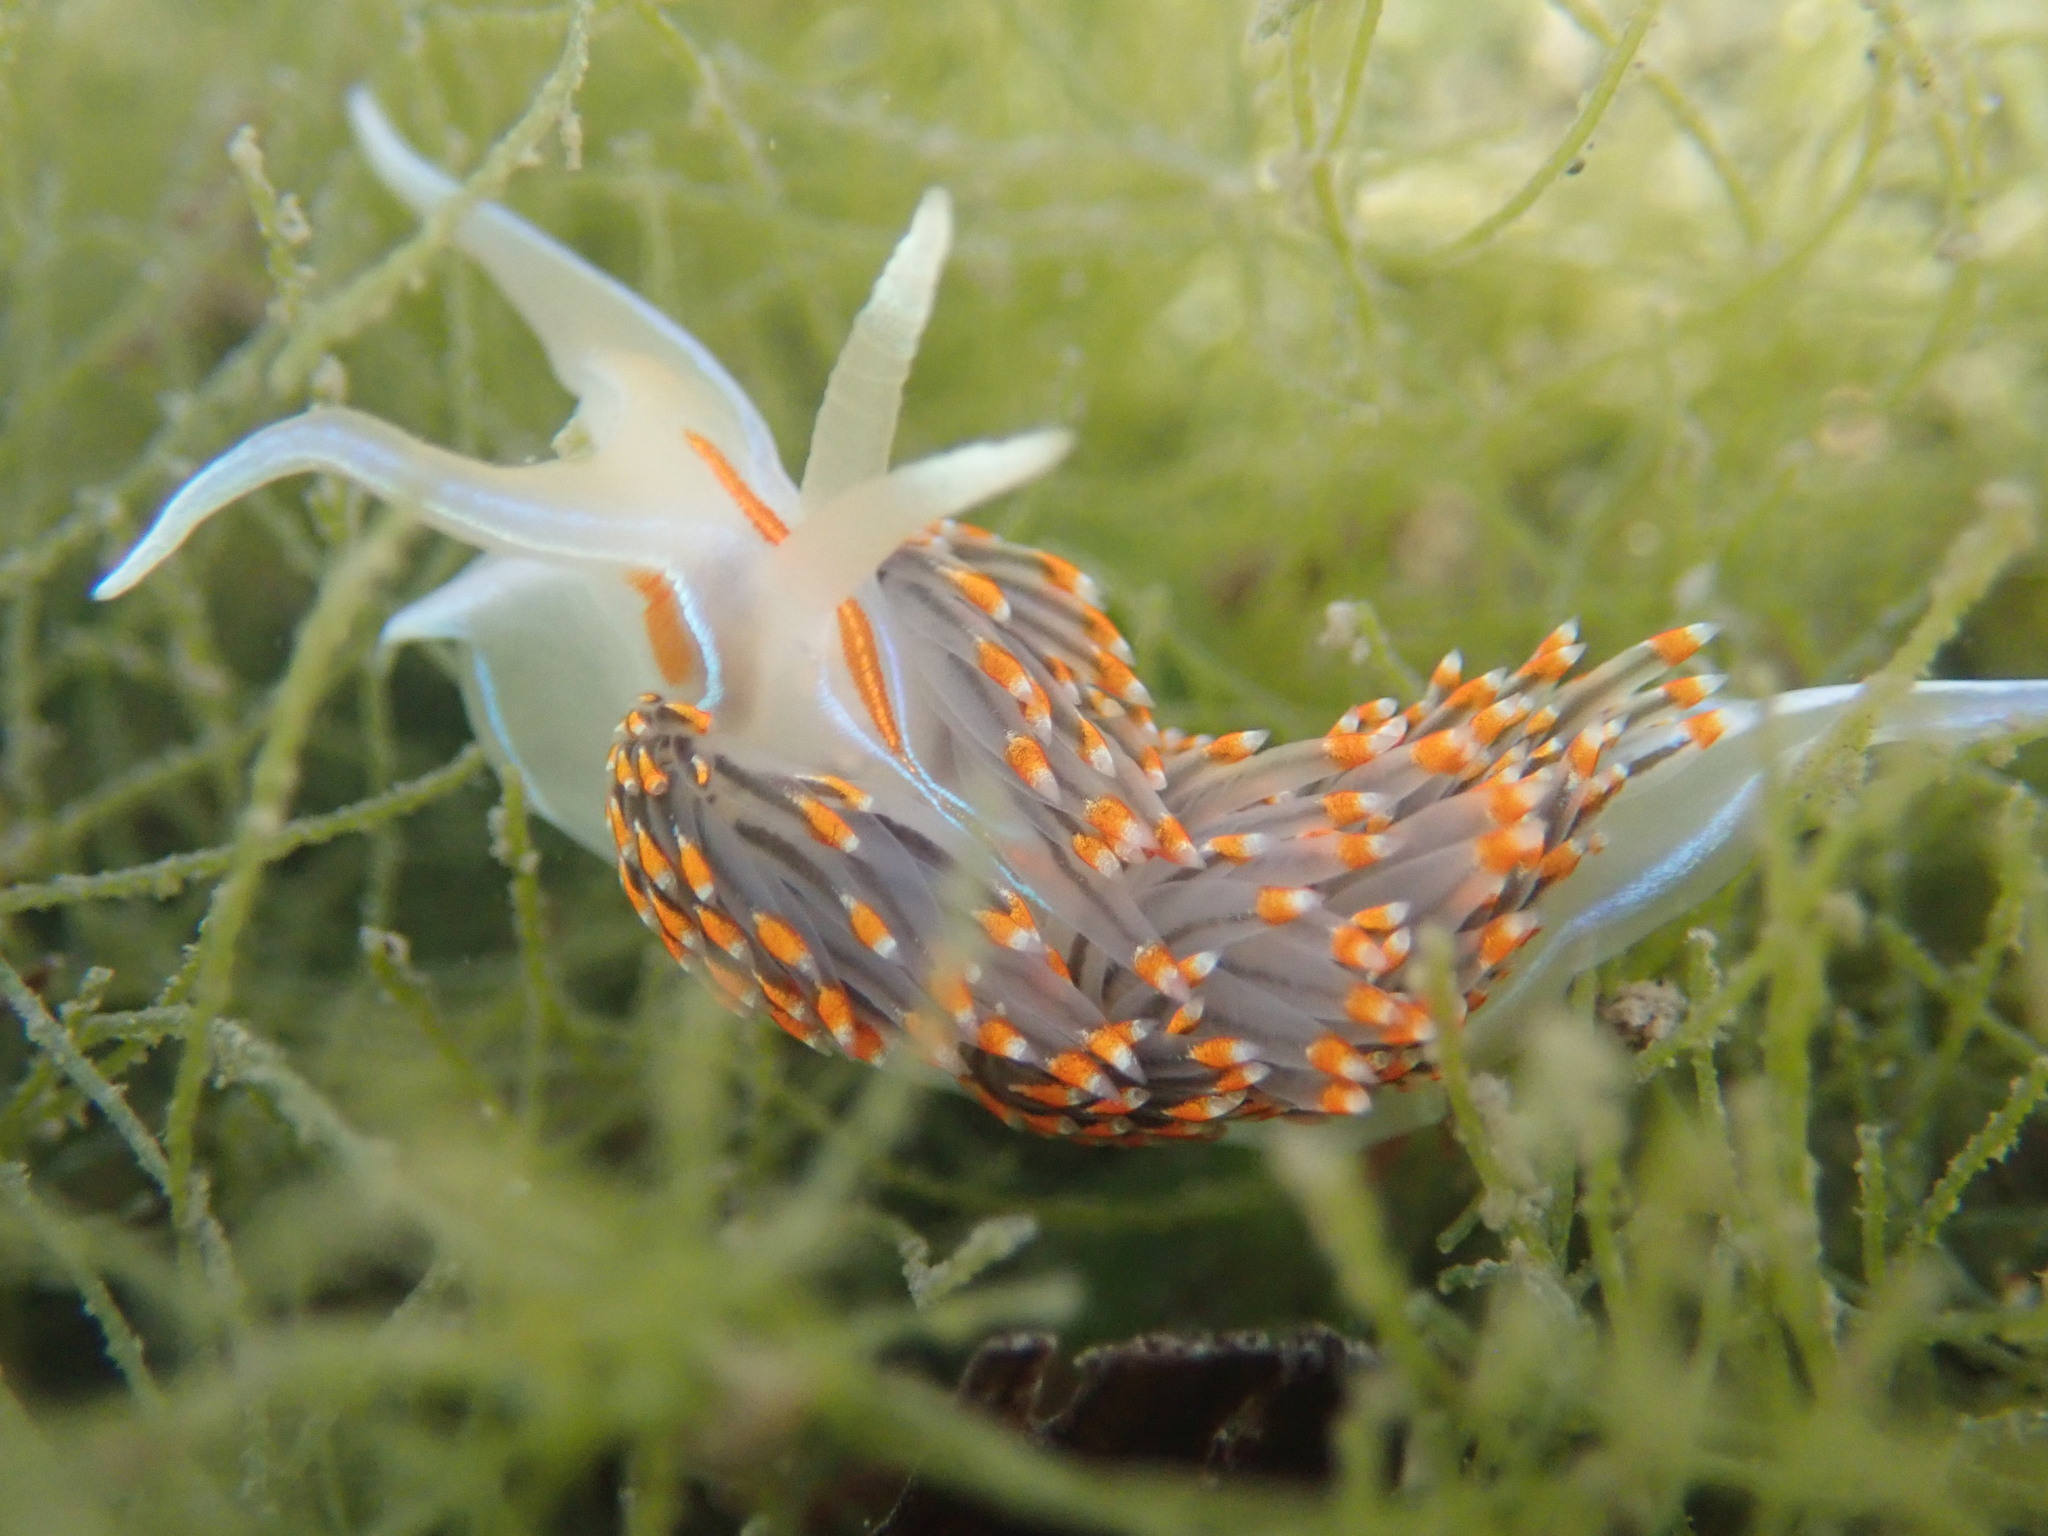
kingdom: Animalia
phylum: Mollusca
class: Gastropoda
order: Nudibranchia
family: Myrrhinidae
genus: Hermissenda
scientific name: Hermissenda opalescens
